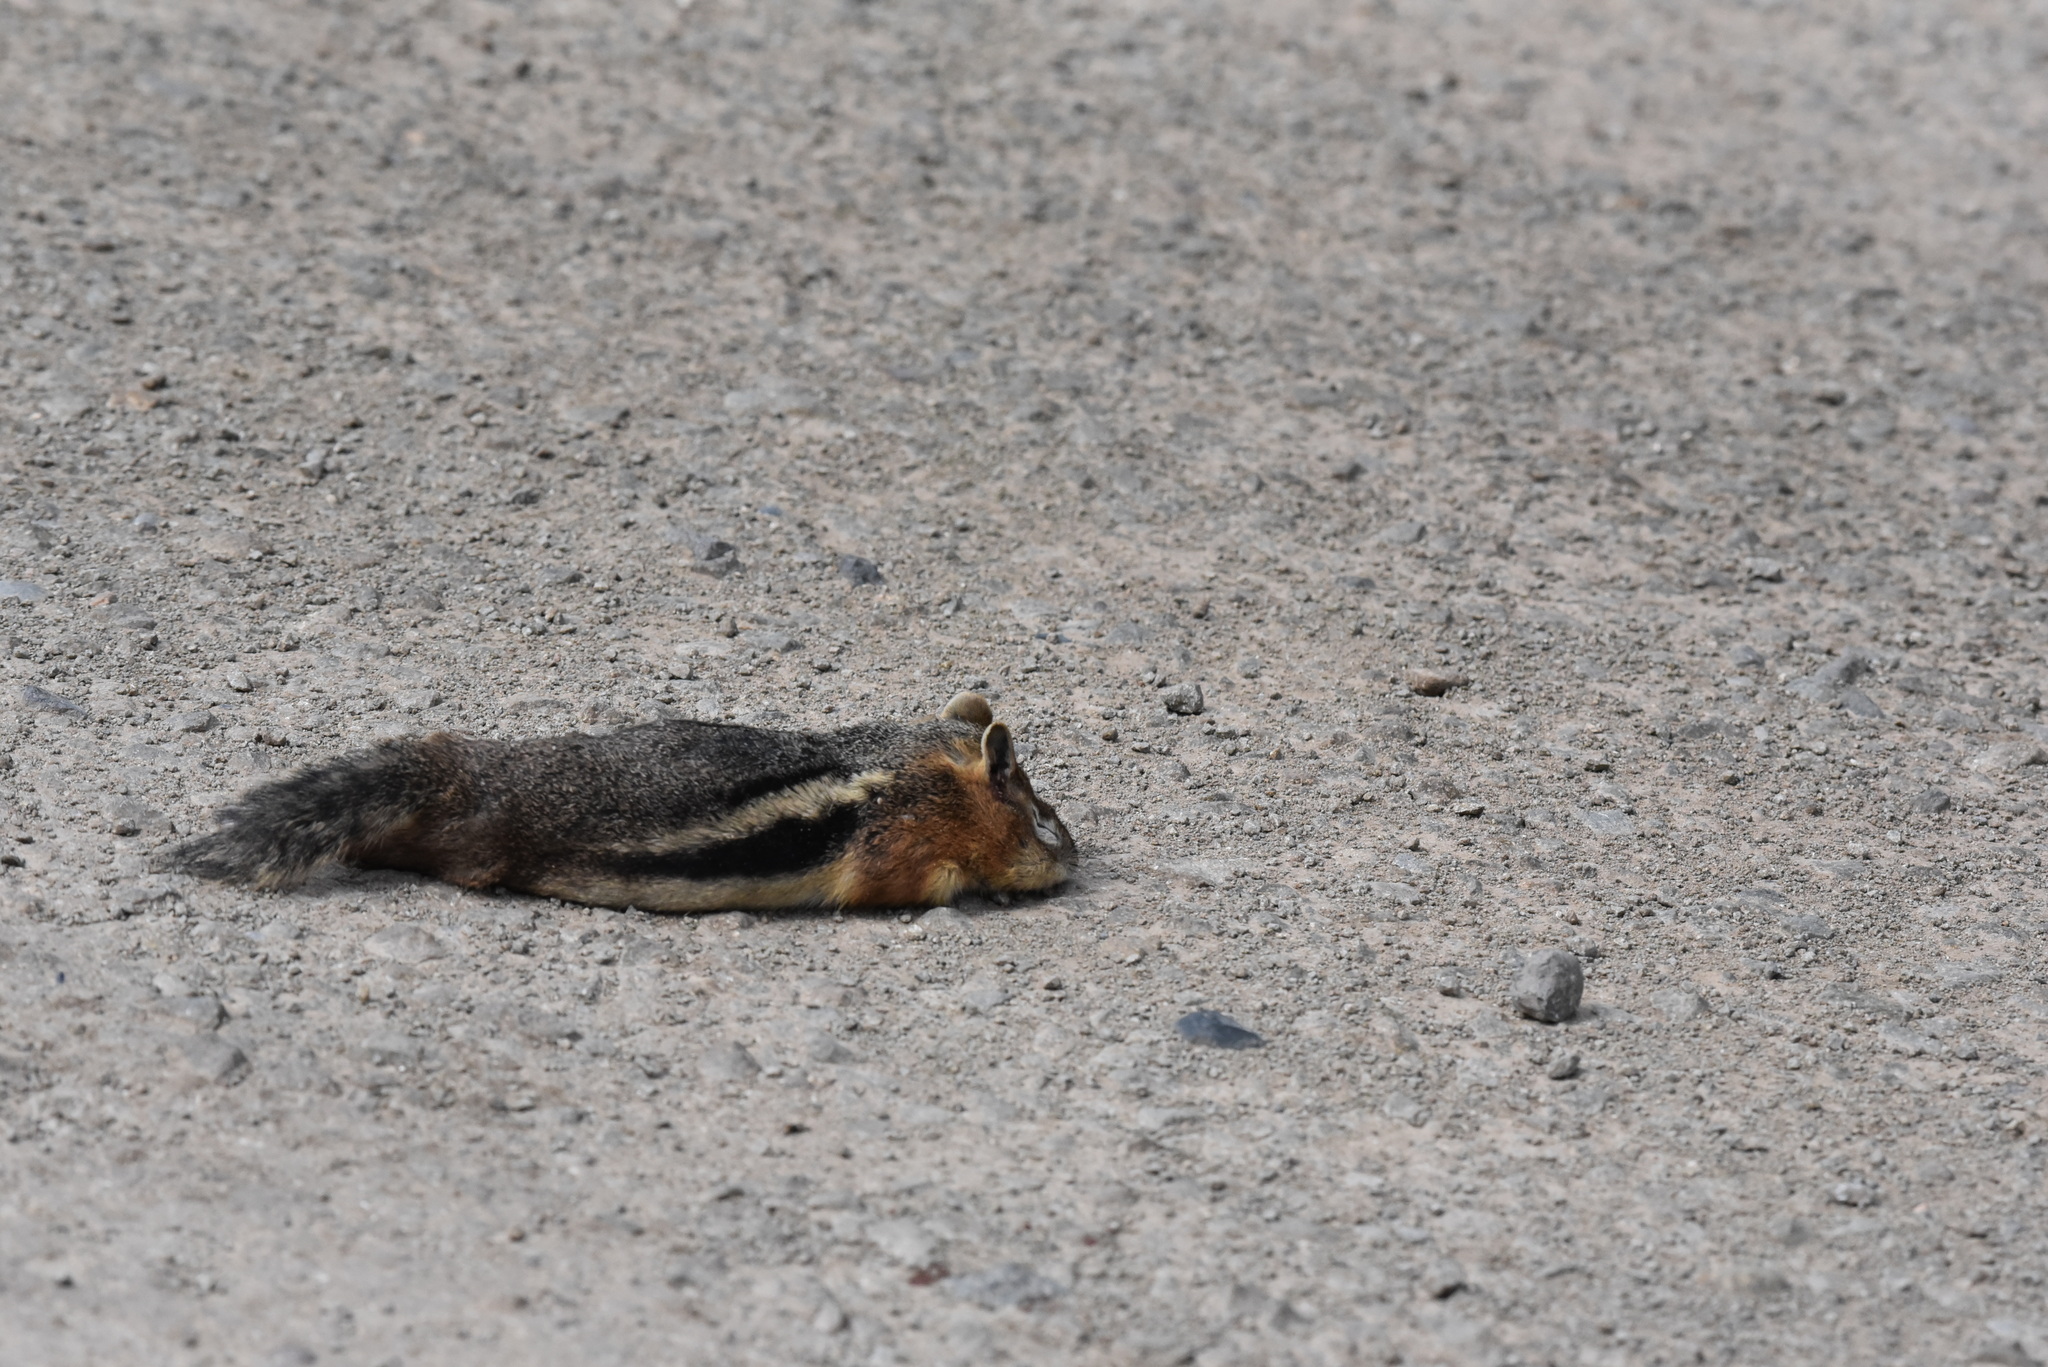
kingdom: Animalia
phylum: Chordata
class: Mammalia
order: Rodentia
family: Sciuridae
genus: Callospermophilus
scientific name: Callospermophilus lateralis
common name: Golden-mantled ground squirrel
